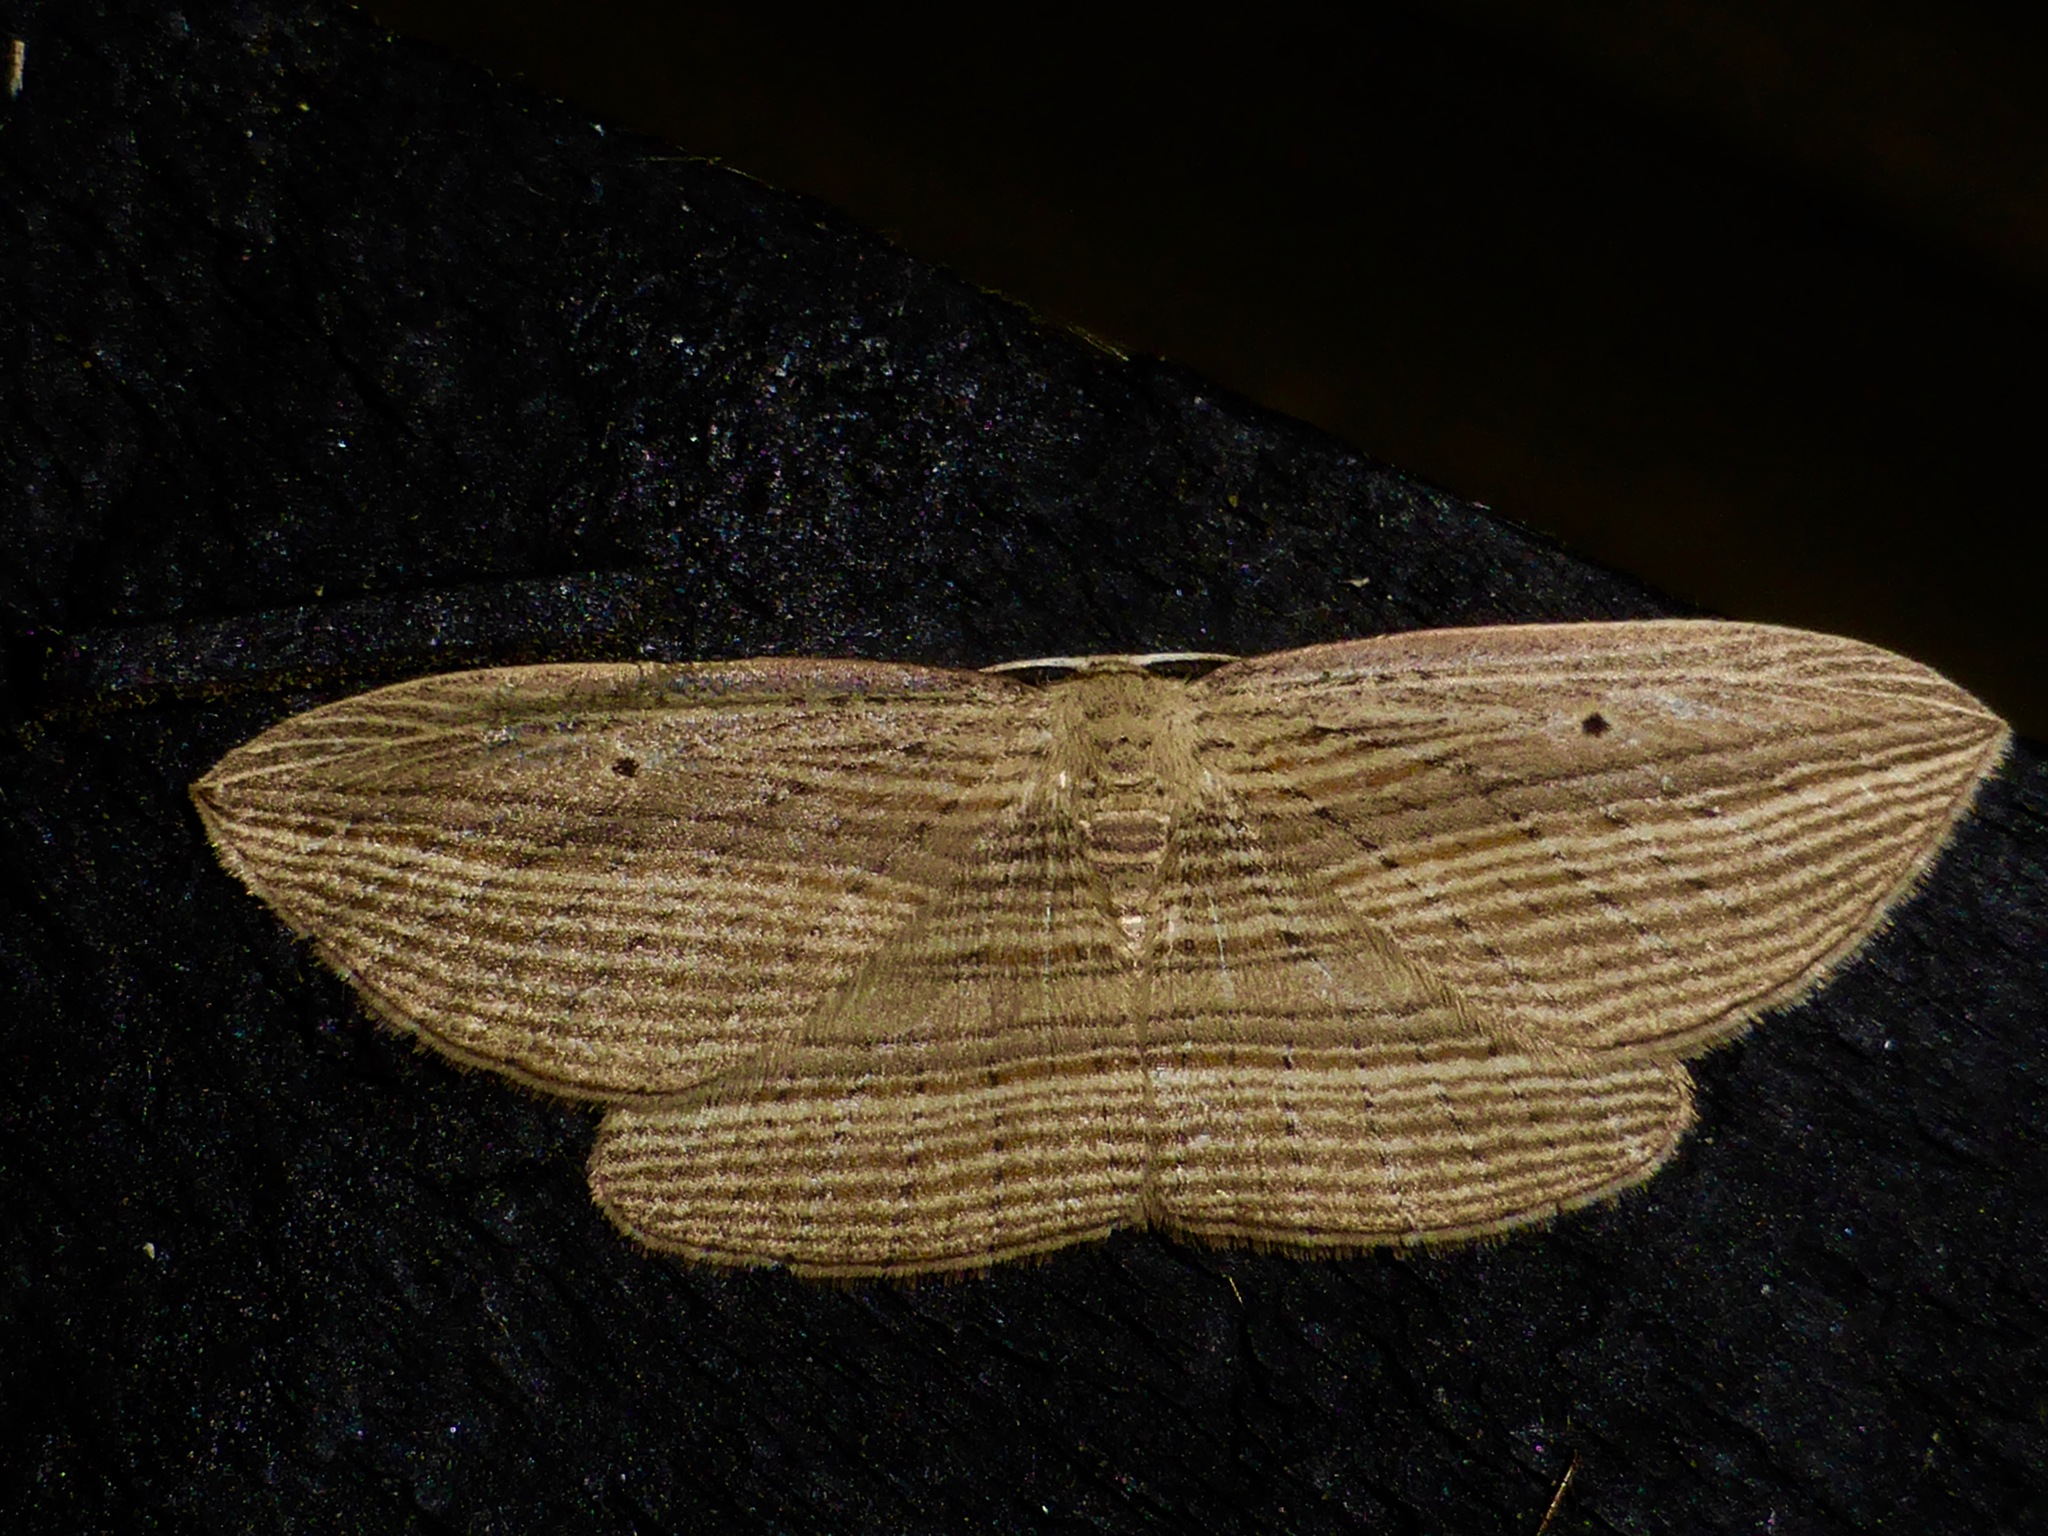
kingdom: Animalia
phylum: Arthropoda
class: Insecta
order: Lepidoptera
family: Geometridae
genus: Epiphryne
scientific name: Epiphryne verriculata
